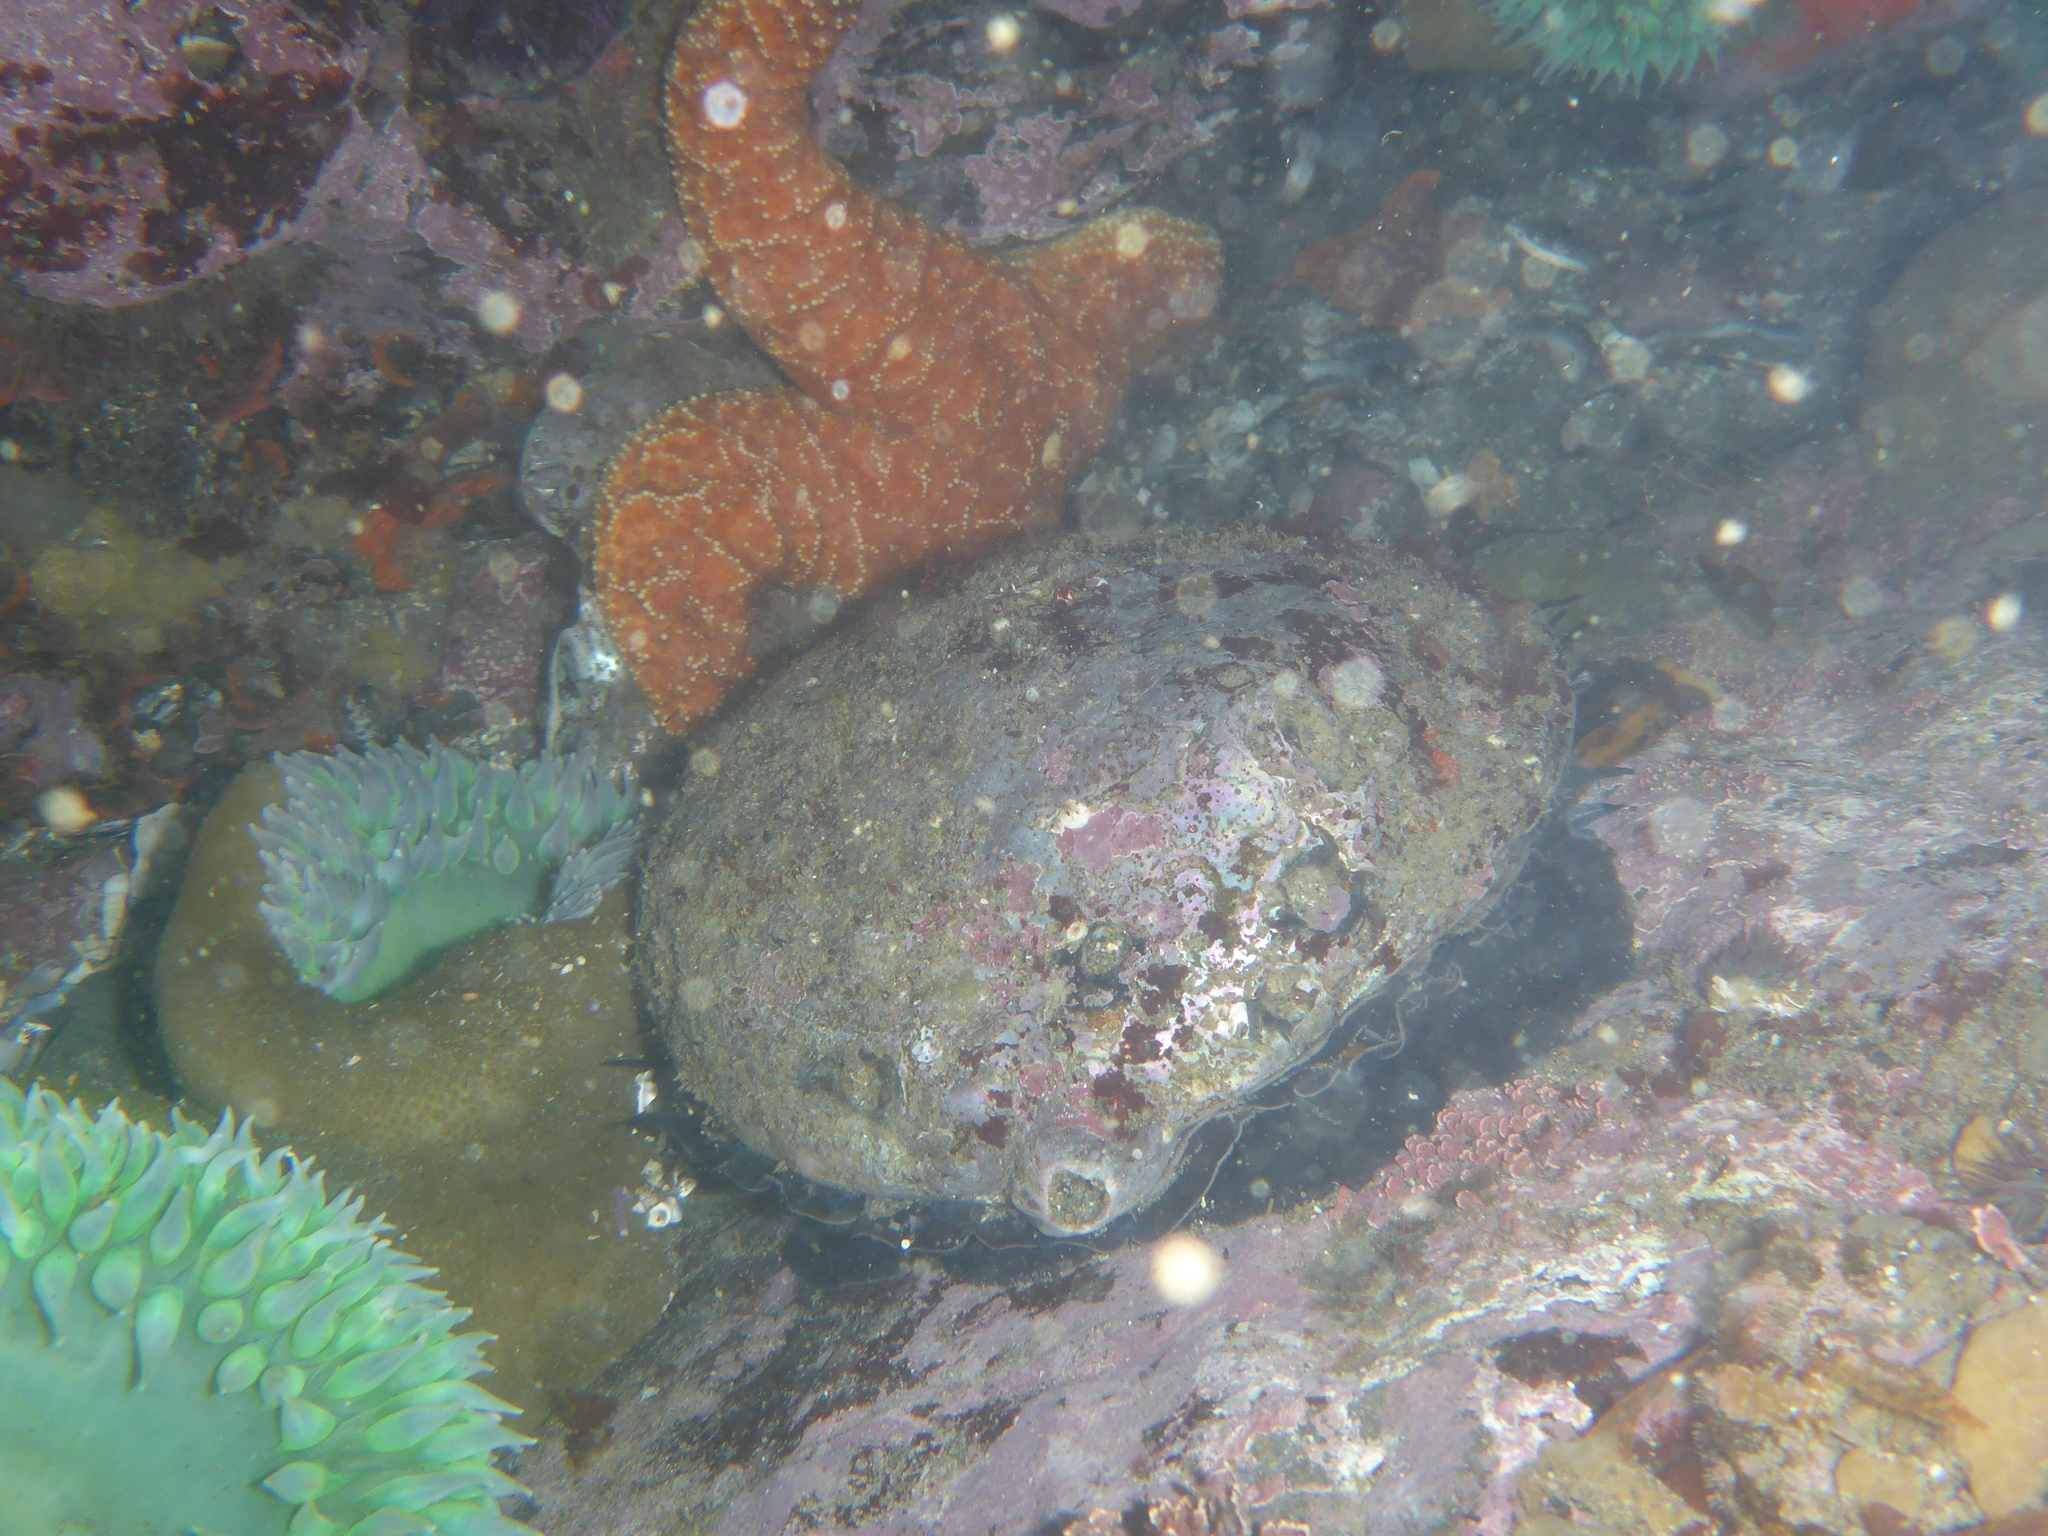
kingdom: Animalia
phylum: Mollusca
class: Gastropoda
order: Lepetellida
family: Haliotidae
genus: Haliotis
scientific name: Haliotis rufescens
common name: Red abalone
